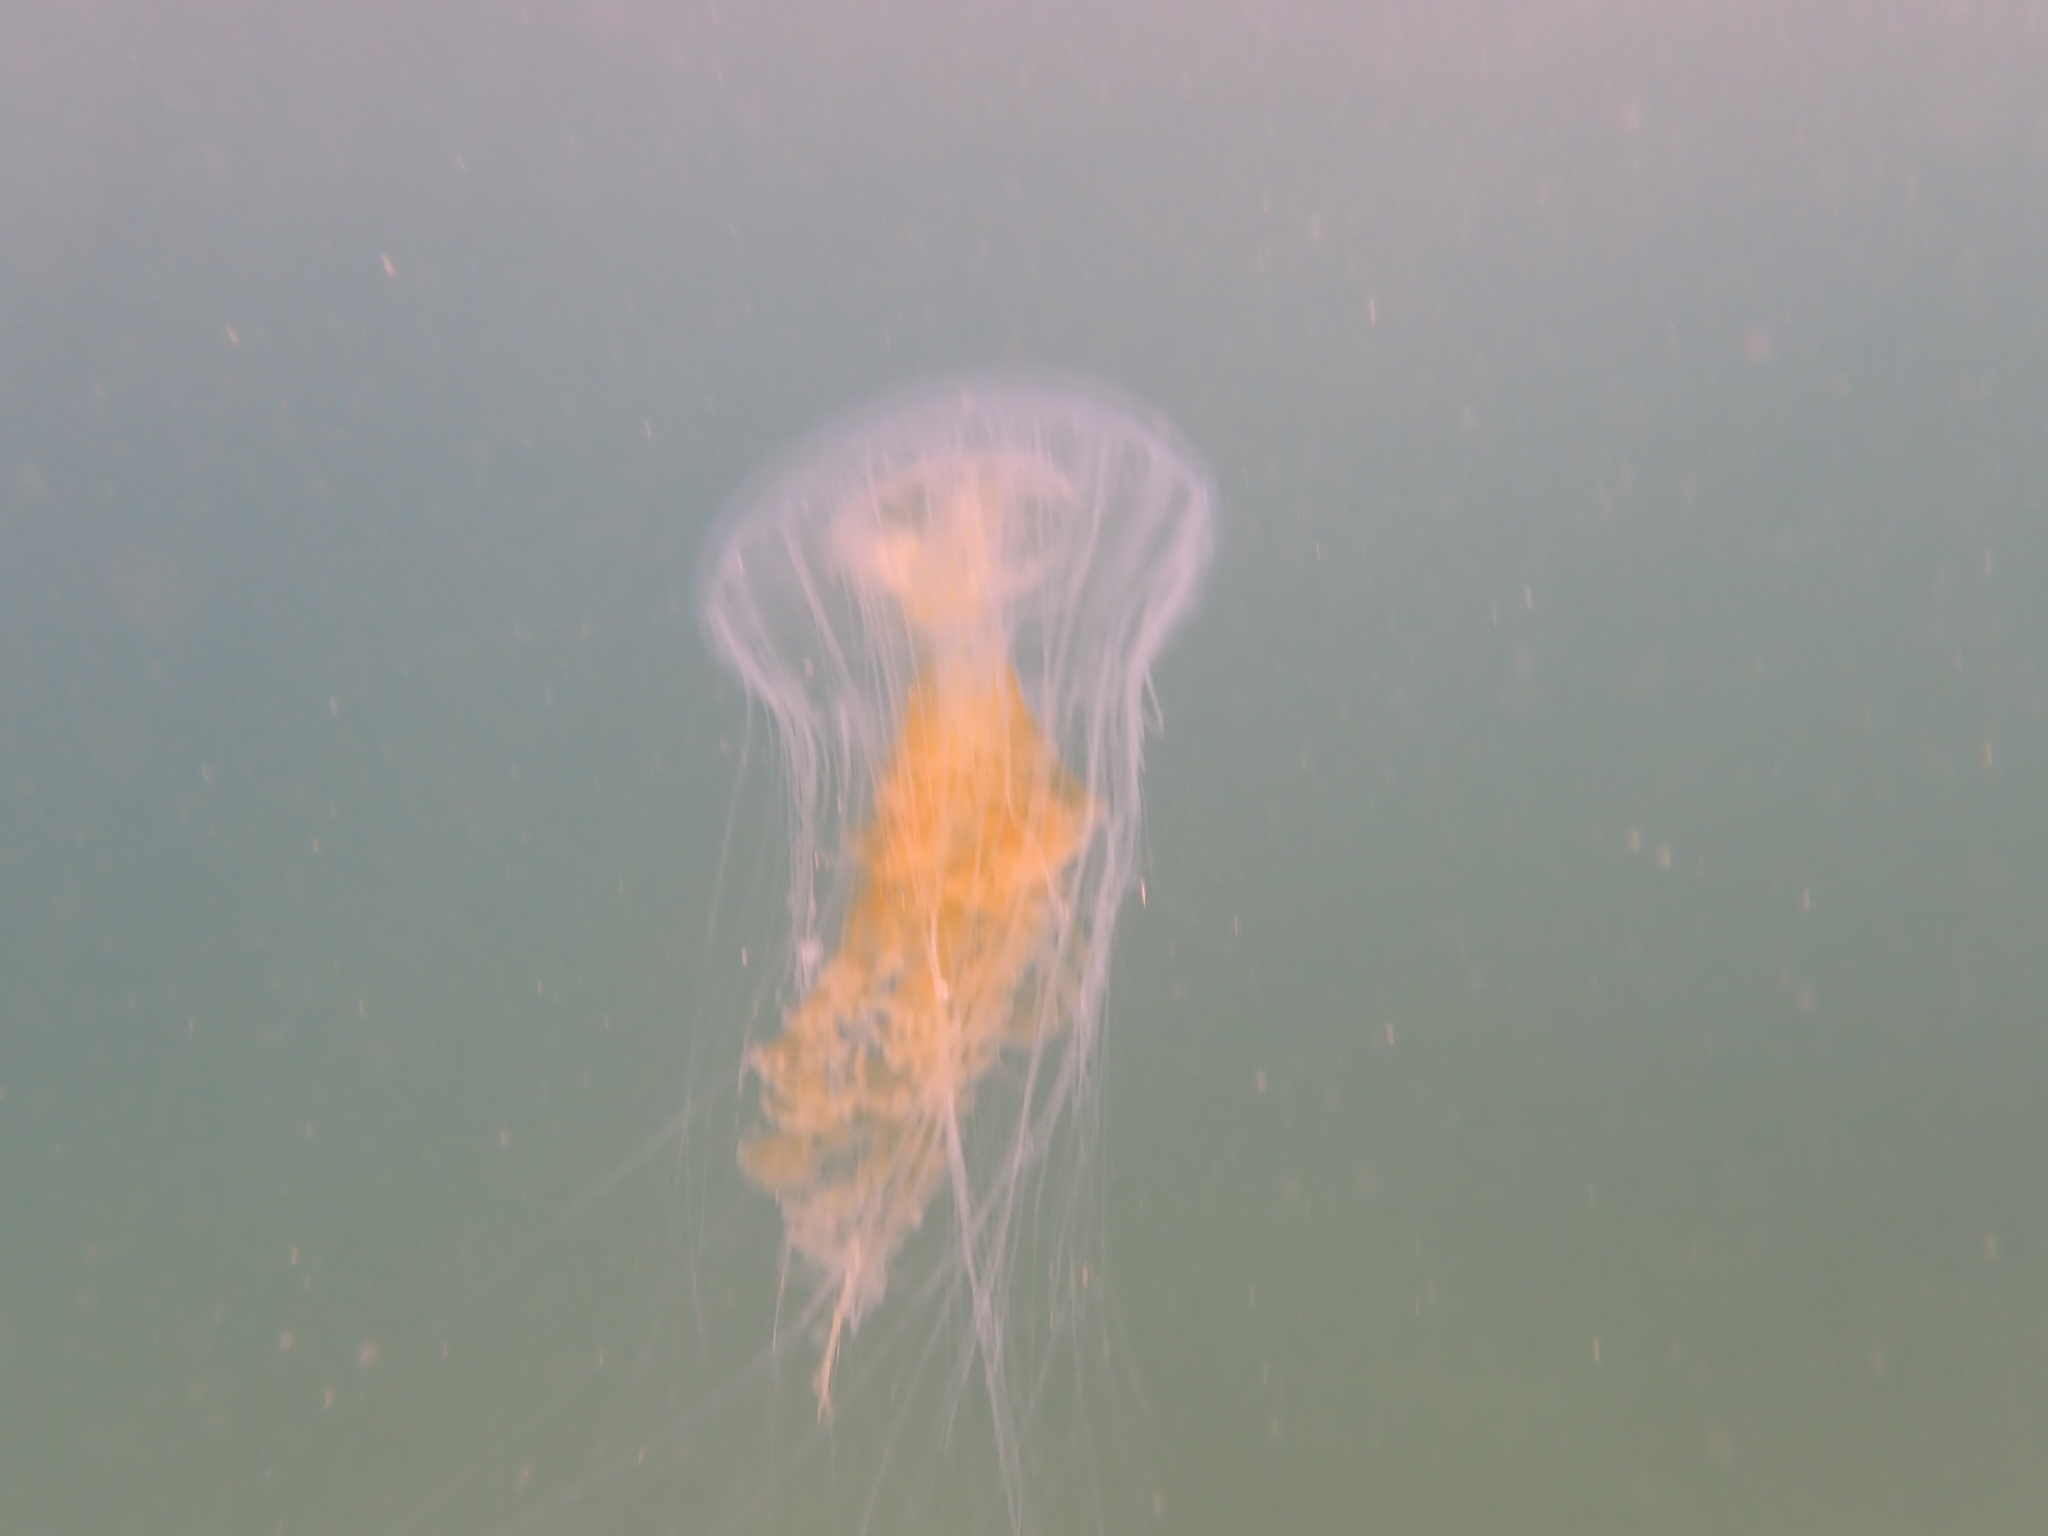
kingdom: Animalia
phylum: Cnidaria
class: Scyphozoa
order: Semaeostomeae
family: Phacellophoridae
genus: Phacellophora
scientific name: Phacellophora camtschatica
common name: Fried-egg jellyfish
